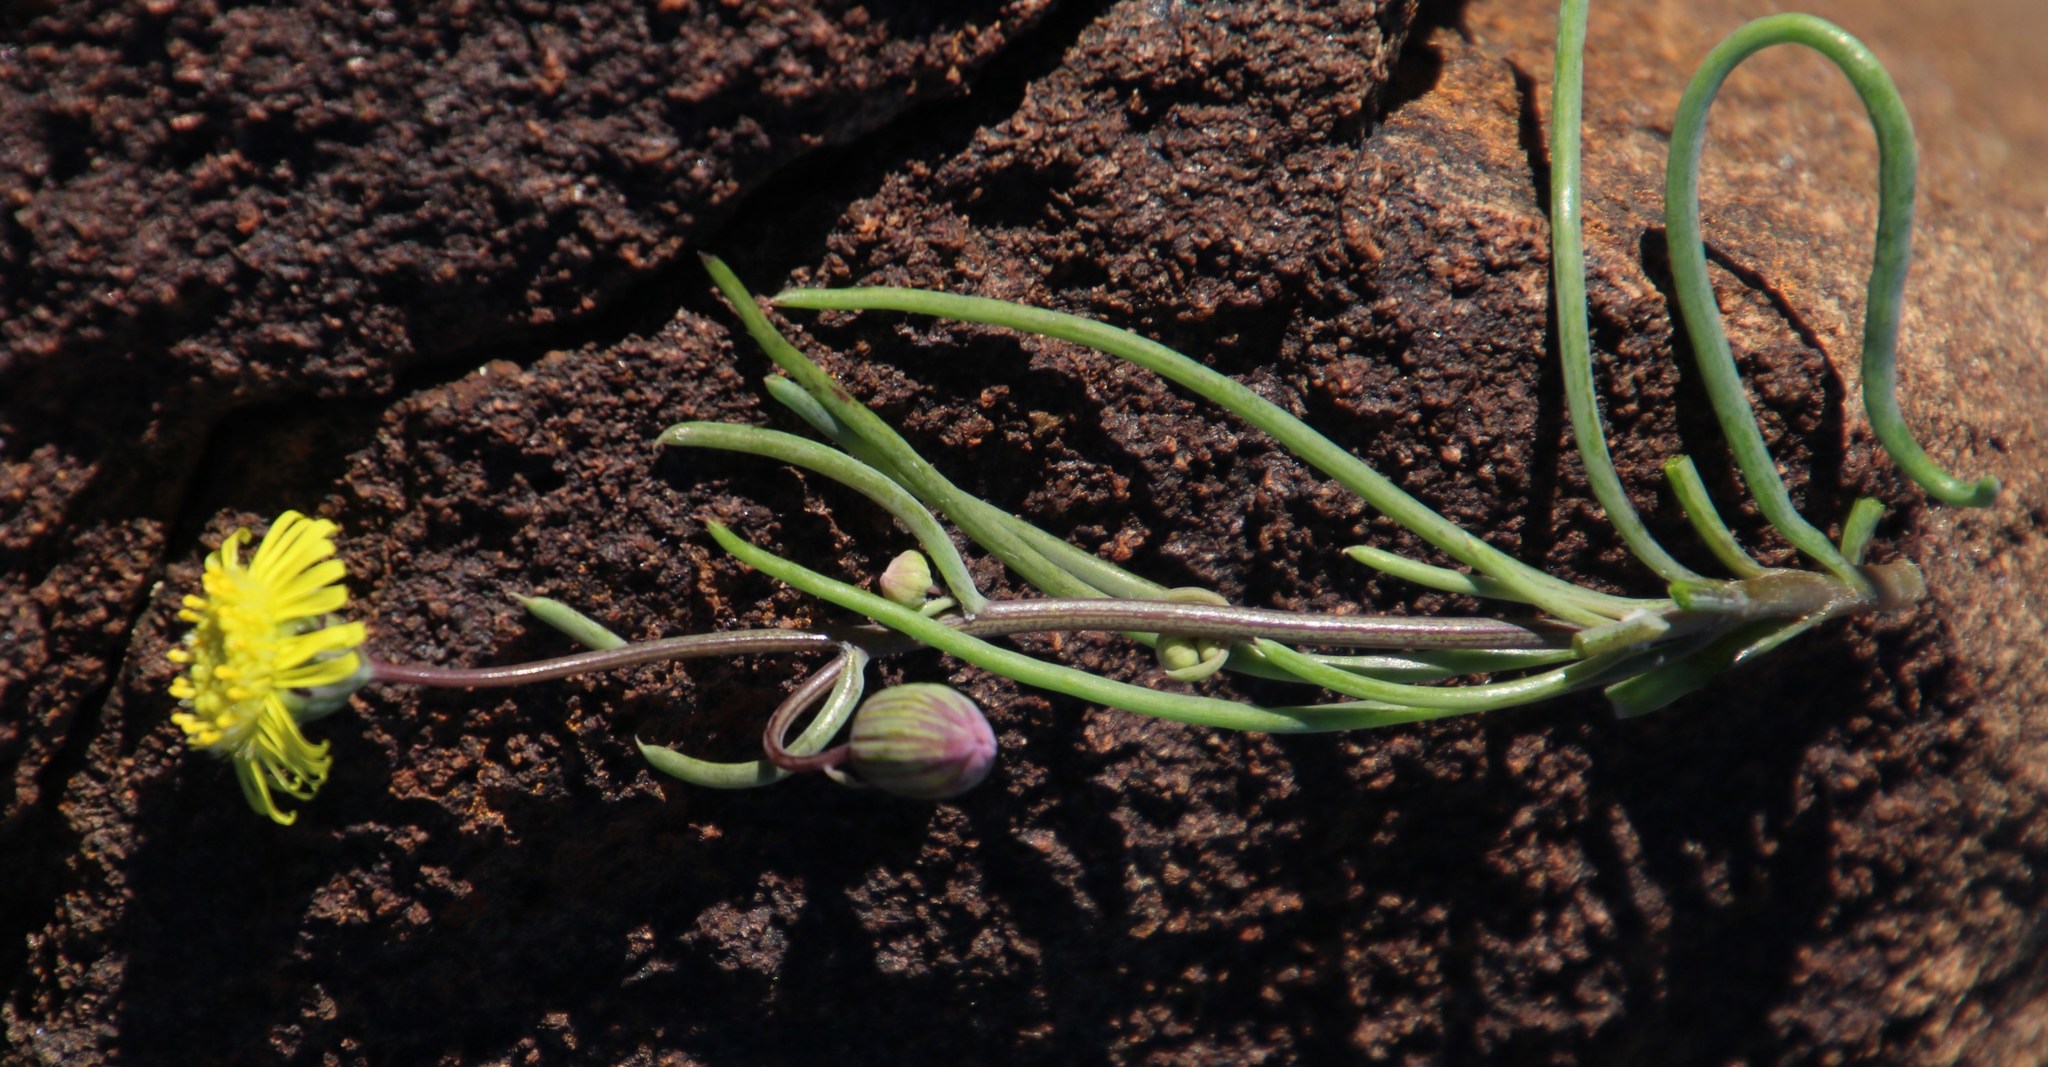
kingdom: Plantae
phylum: Tracheophyta
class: Magnoliopsida
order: Asterales
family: Asteraceae
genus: Crassothonna
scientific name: Crassothonna protecta
